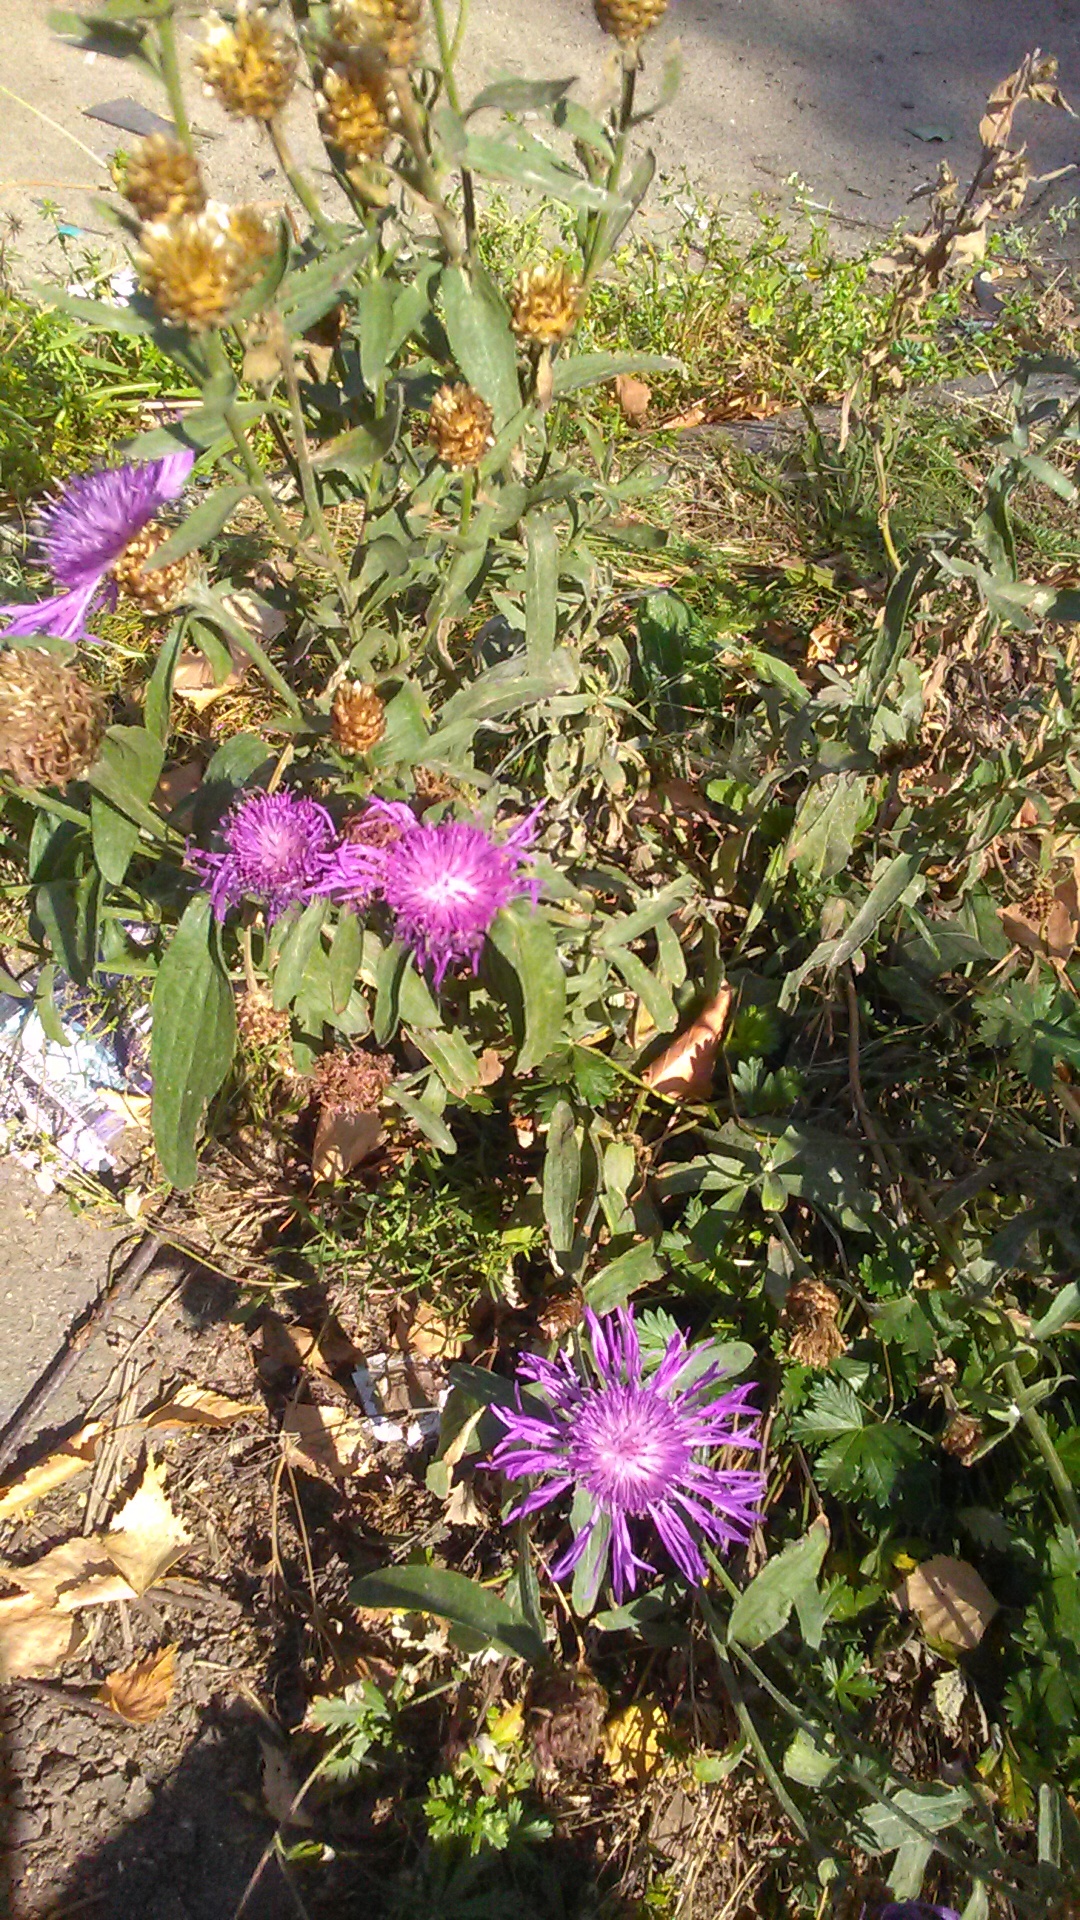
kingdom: Plantae
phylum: Tracheophyta
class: Magnoliopsida
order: Asterales
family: Asteraceae
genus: Centaurea
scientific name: Centaurea jacea
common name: Brown knapweed
